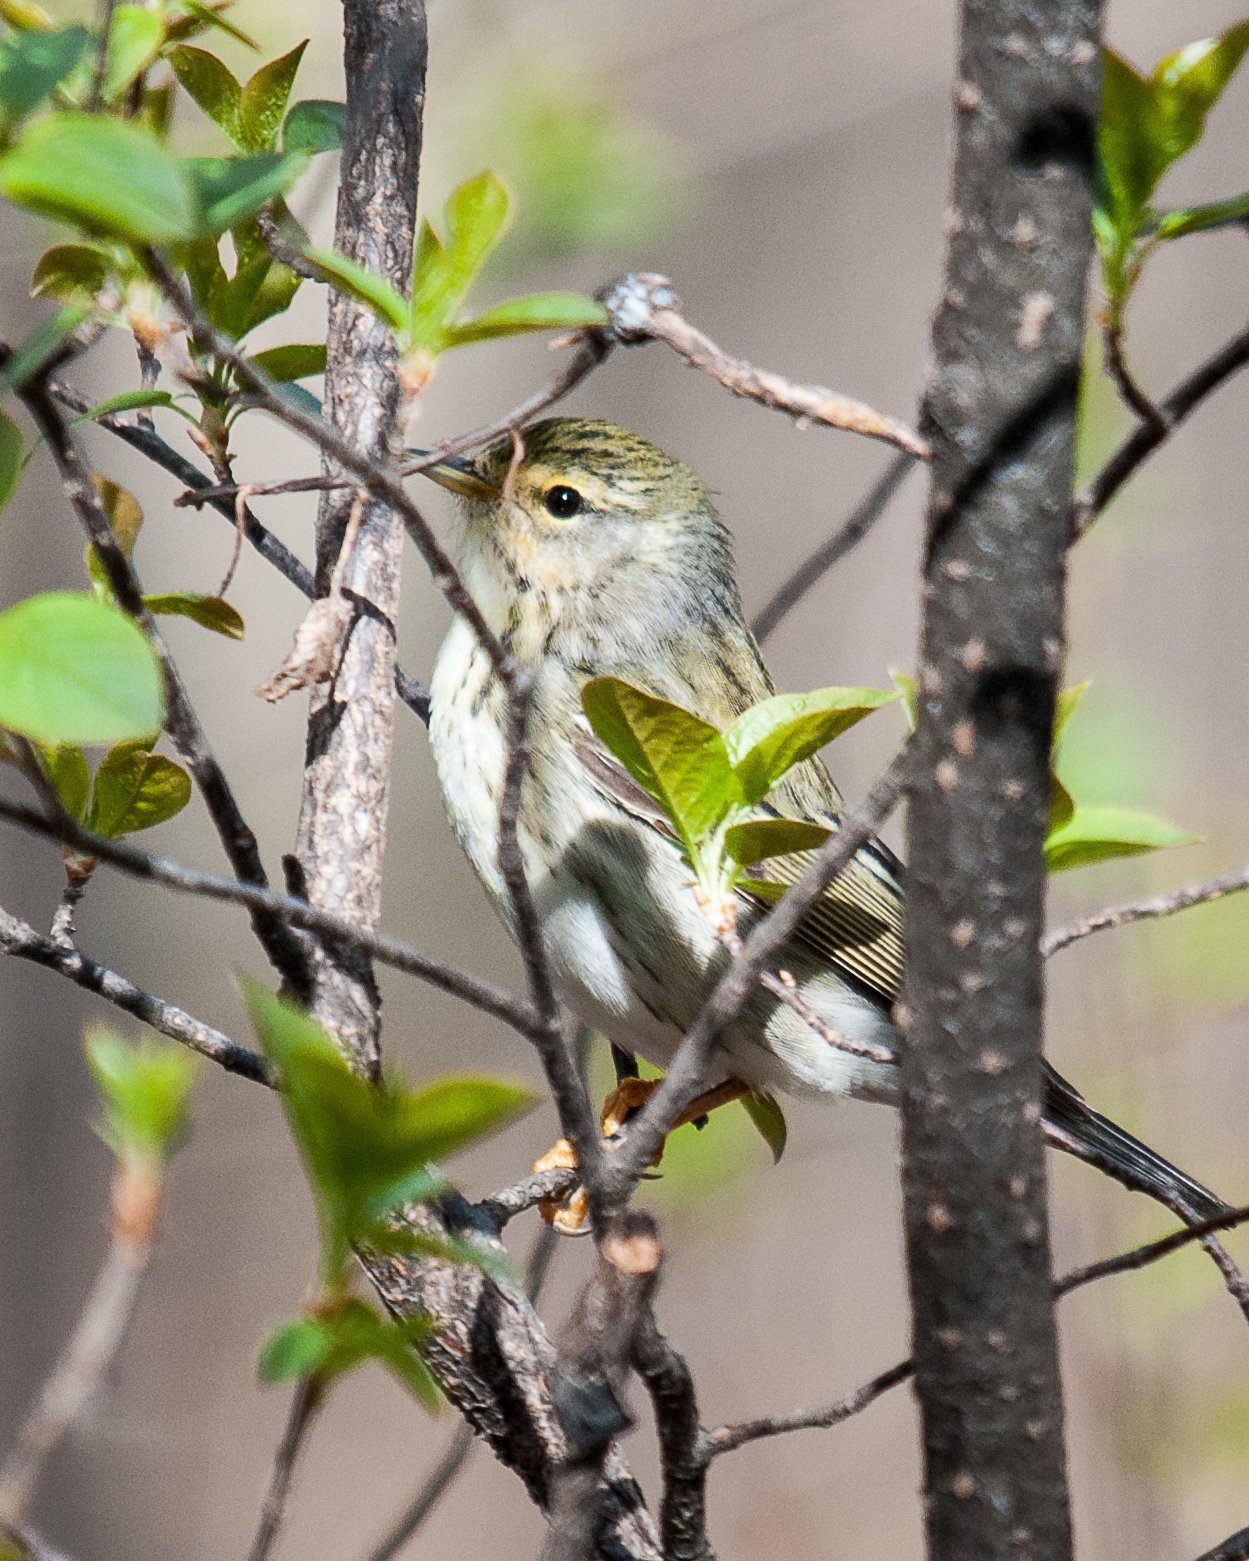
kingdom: Animalia
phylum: Chordata
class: Aves
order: Passeriformes
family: Parulidae
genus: Setophaga
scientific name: Setophaga striata
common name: Blackpoll warbler
